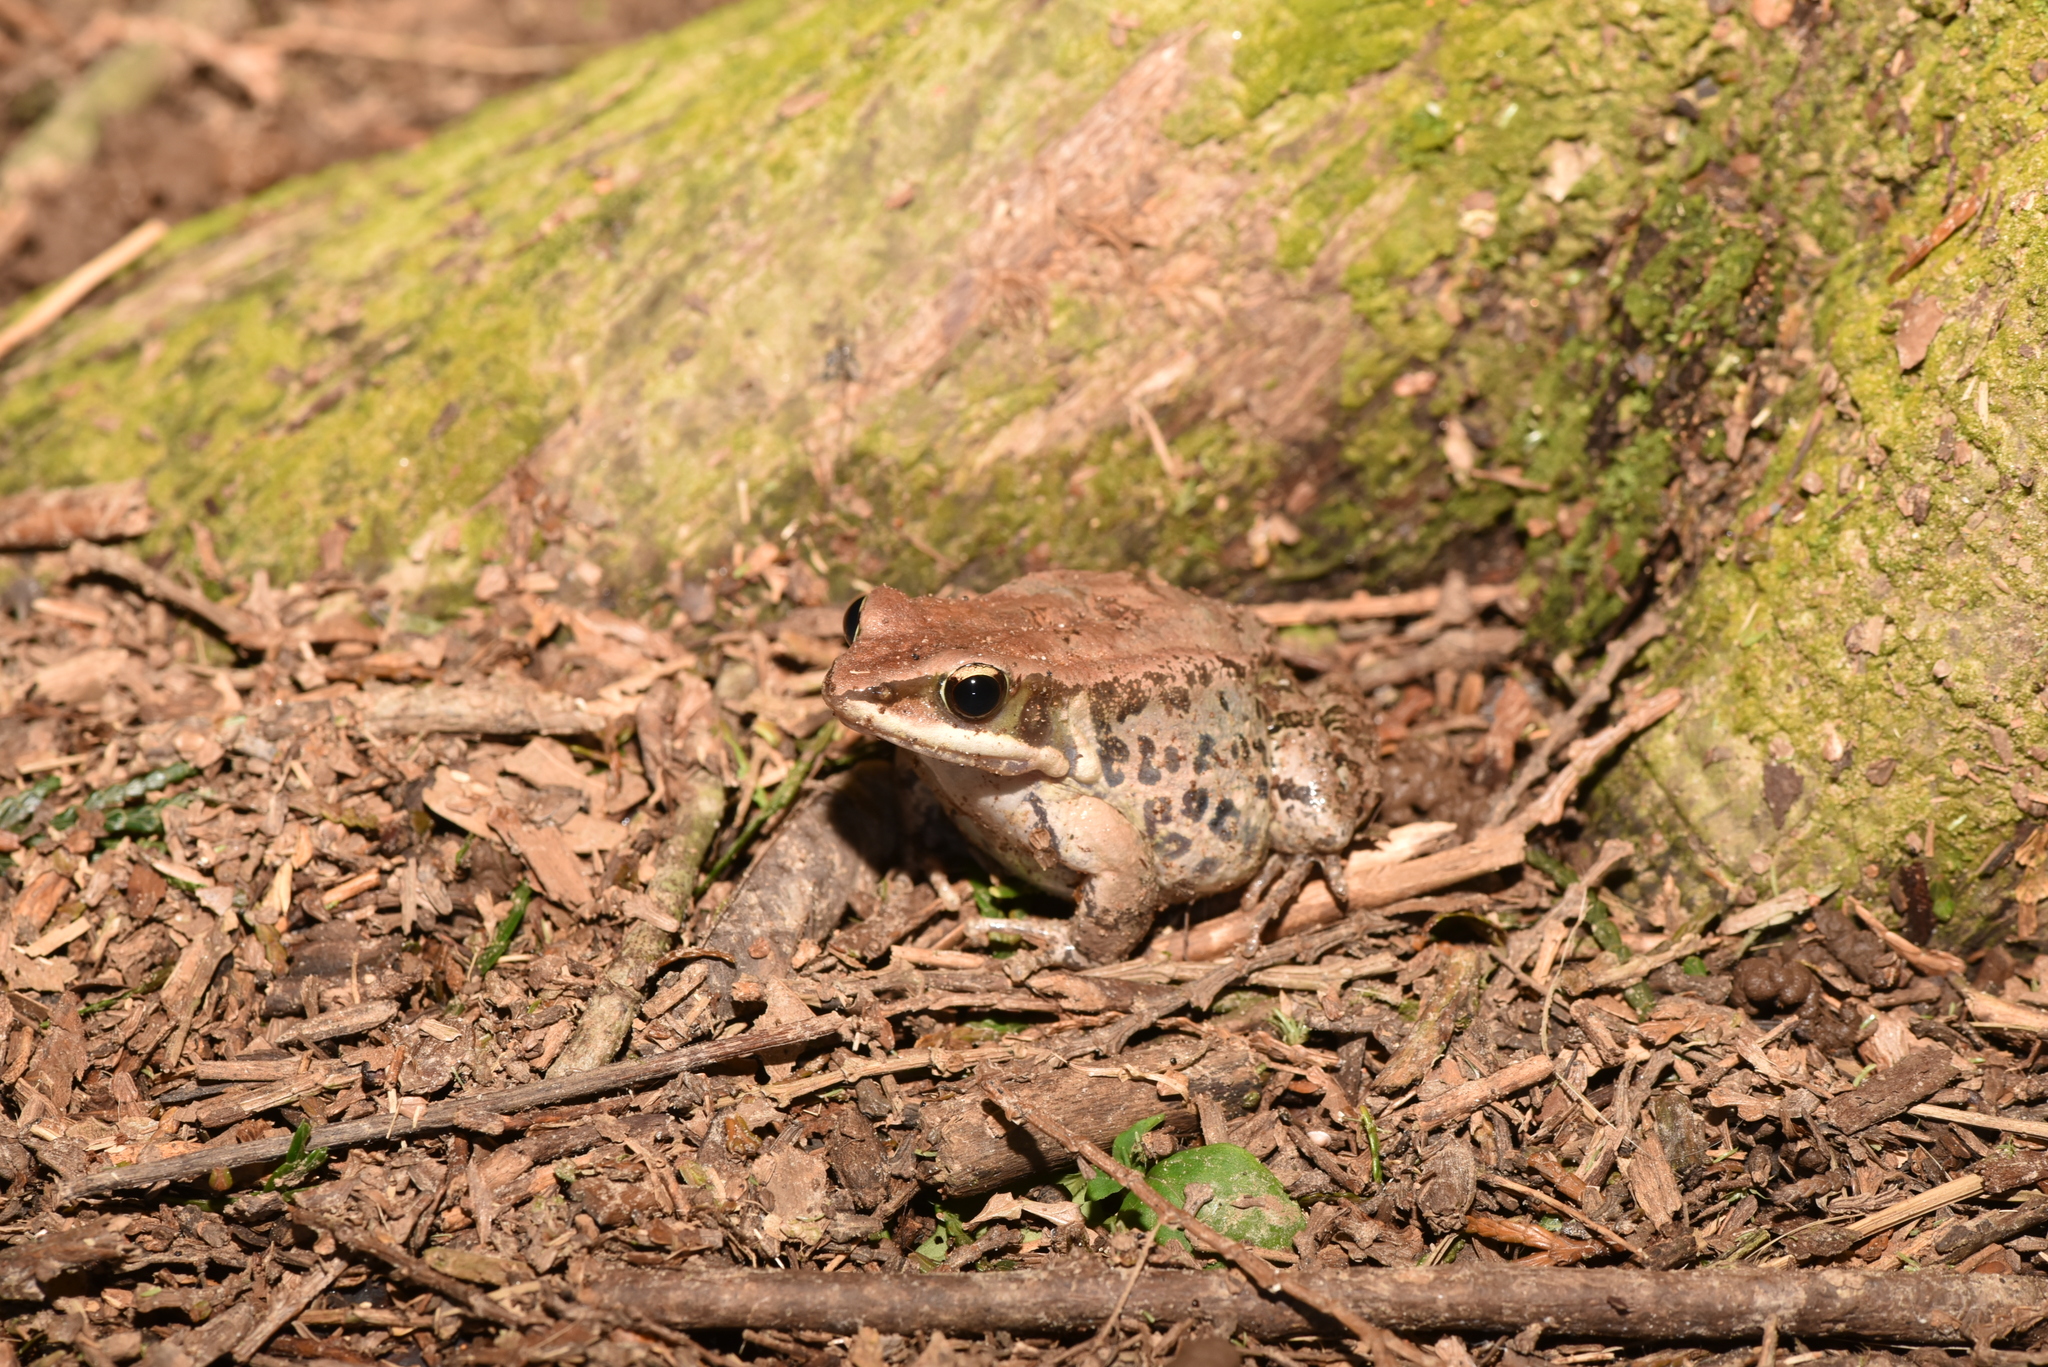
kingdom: Animalia
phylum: Chordata
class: Amphibia
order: Anura
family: Ranidae
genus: Hylarana
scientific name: Hylarana latouchii
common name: Broad-folded frog
